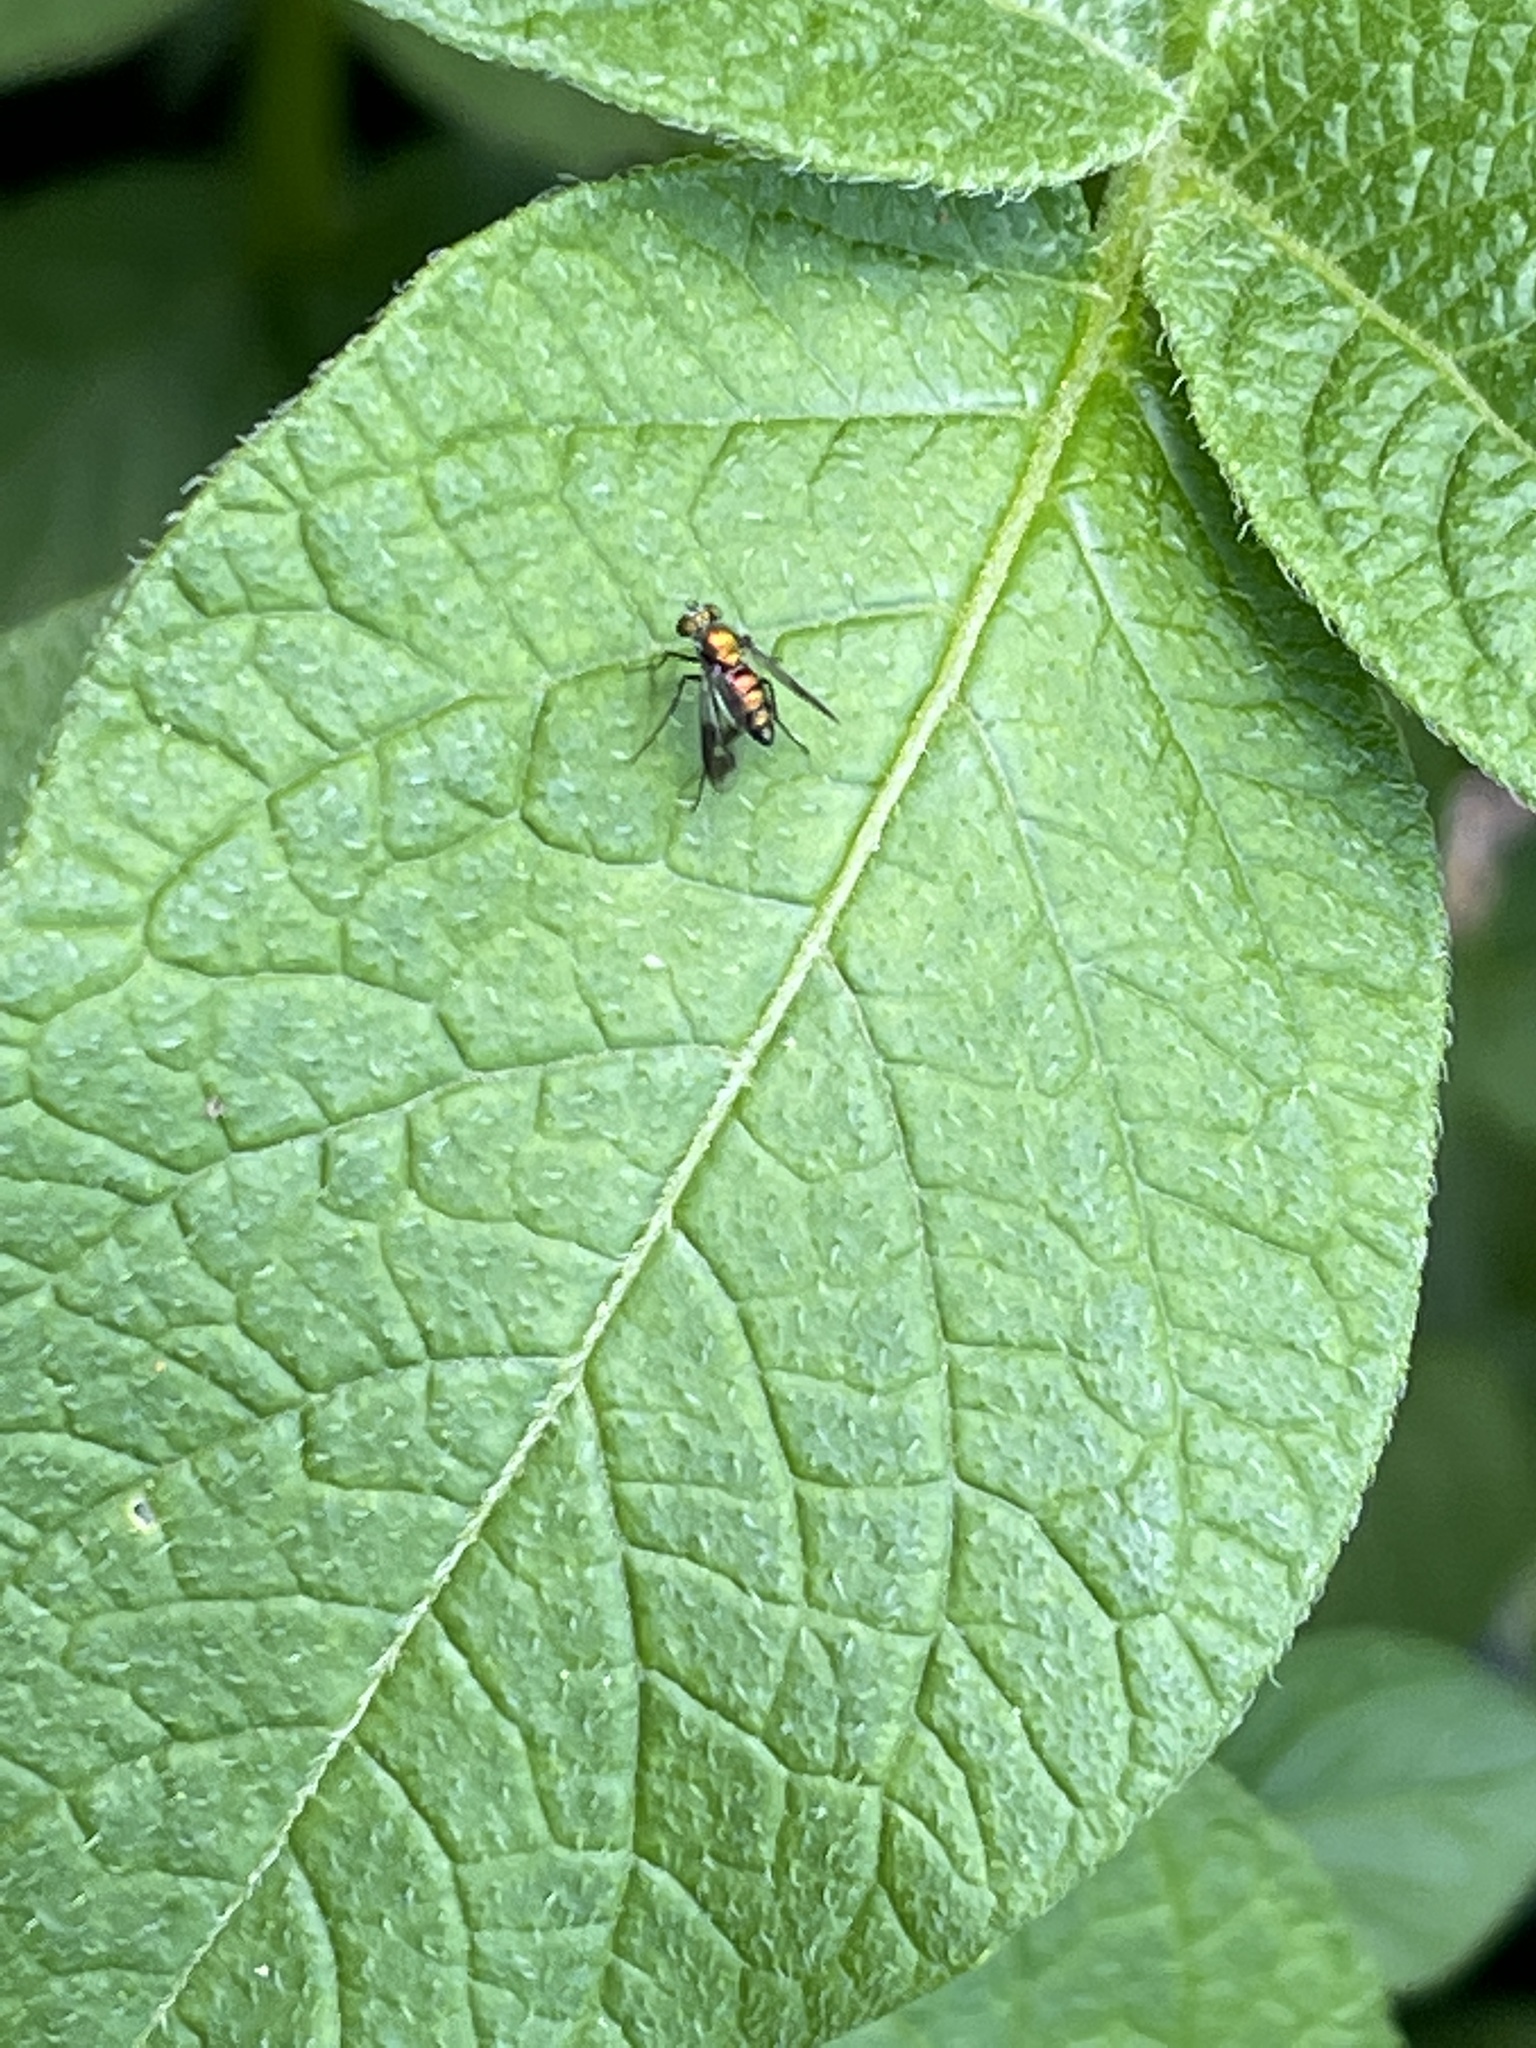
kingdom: Animalia
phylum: Arthropoda
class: Insecta
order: Diptera
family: Dolichopodidae
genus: Condylostylus
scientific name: Condylostylus patibulatus
